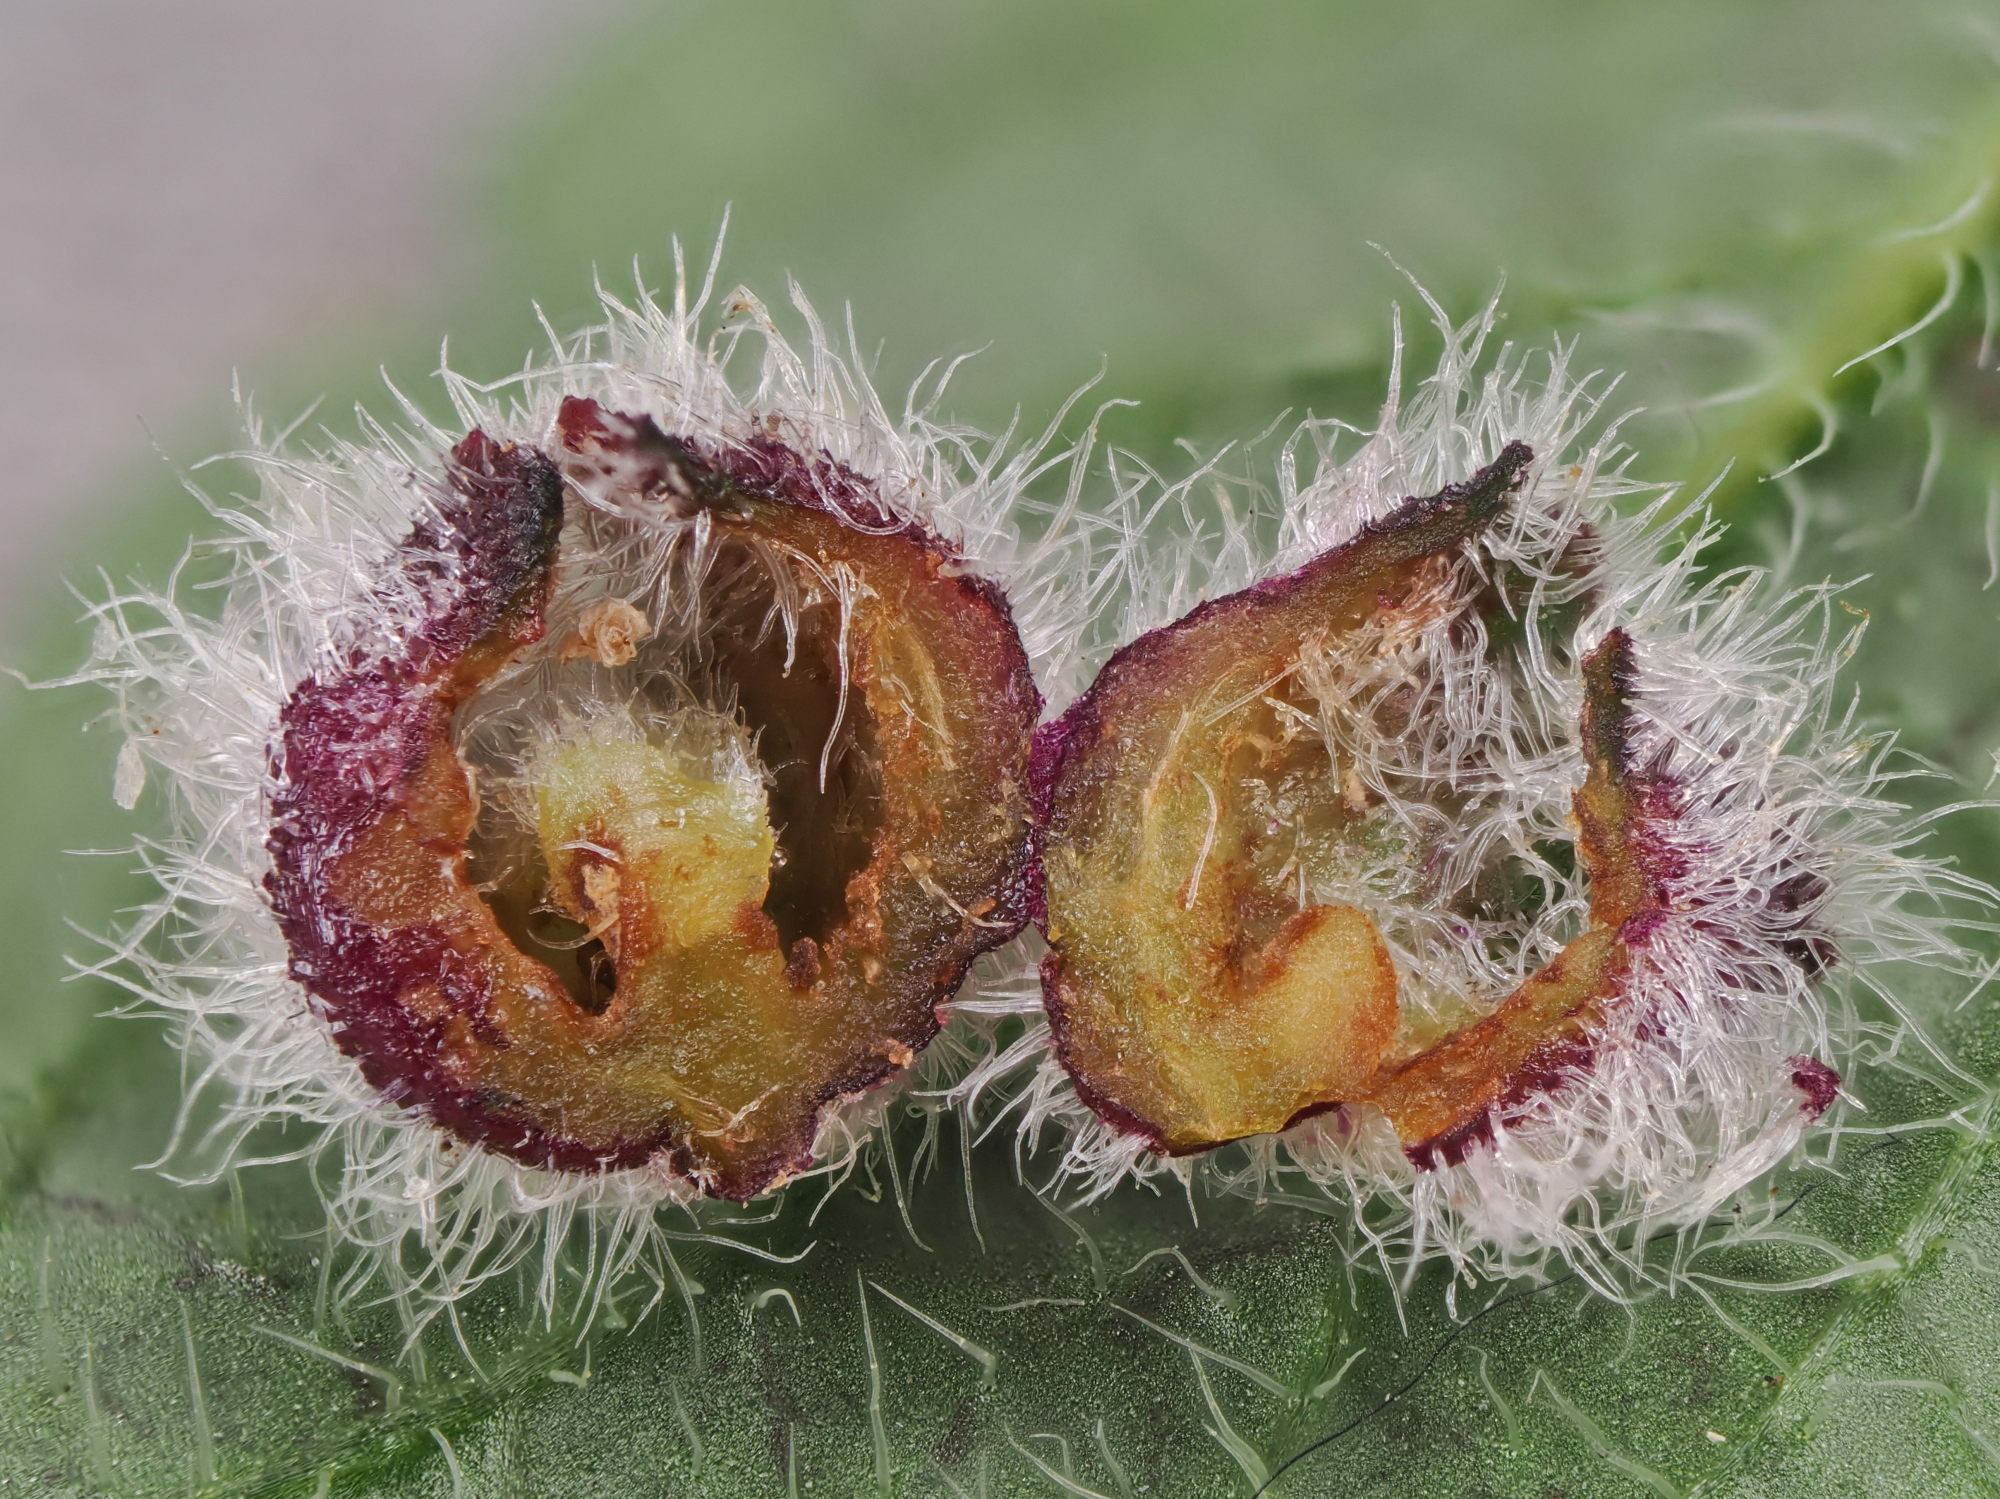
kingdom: Animalia
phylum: Arthropoda
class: Insecta
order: Diptera
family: Cecidomyiidae
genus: Jaapiella
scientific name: Jaapiella veronicae
